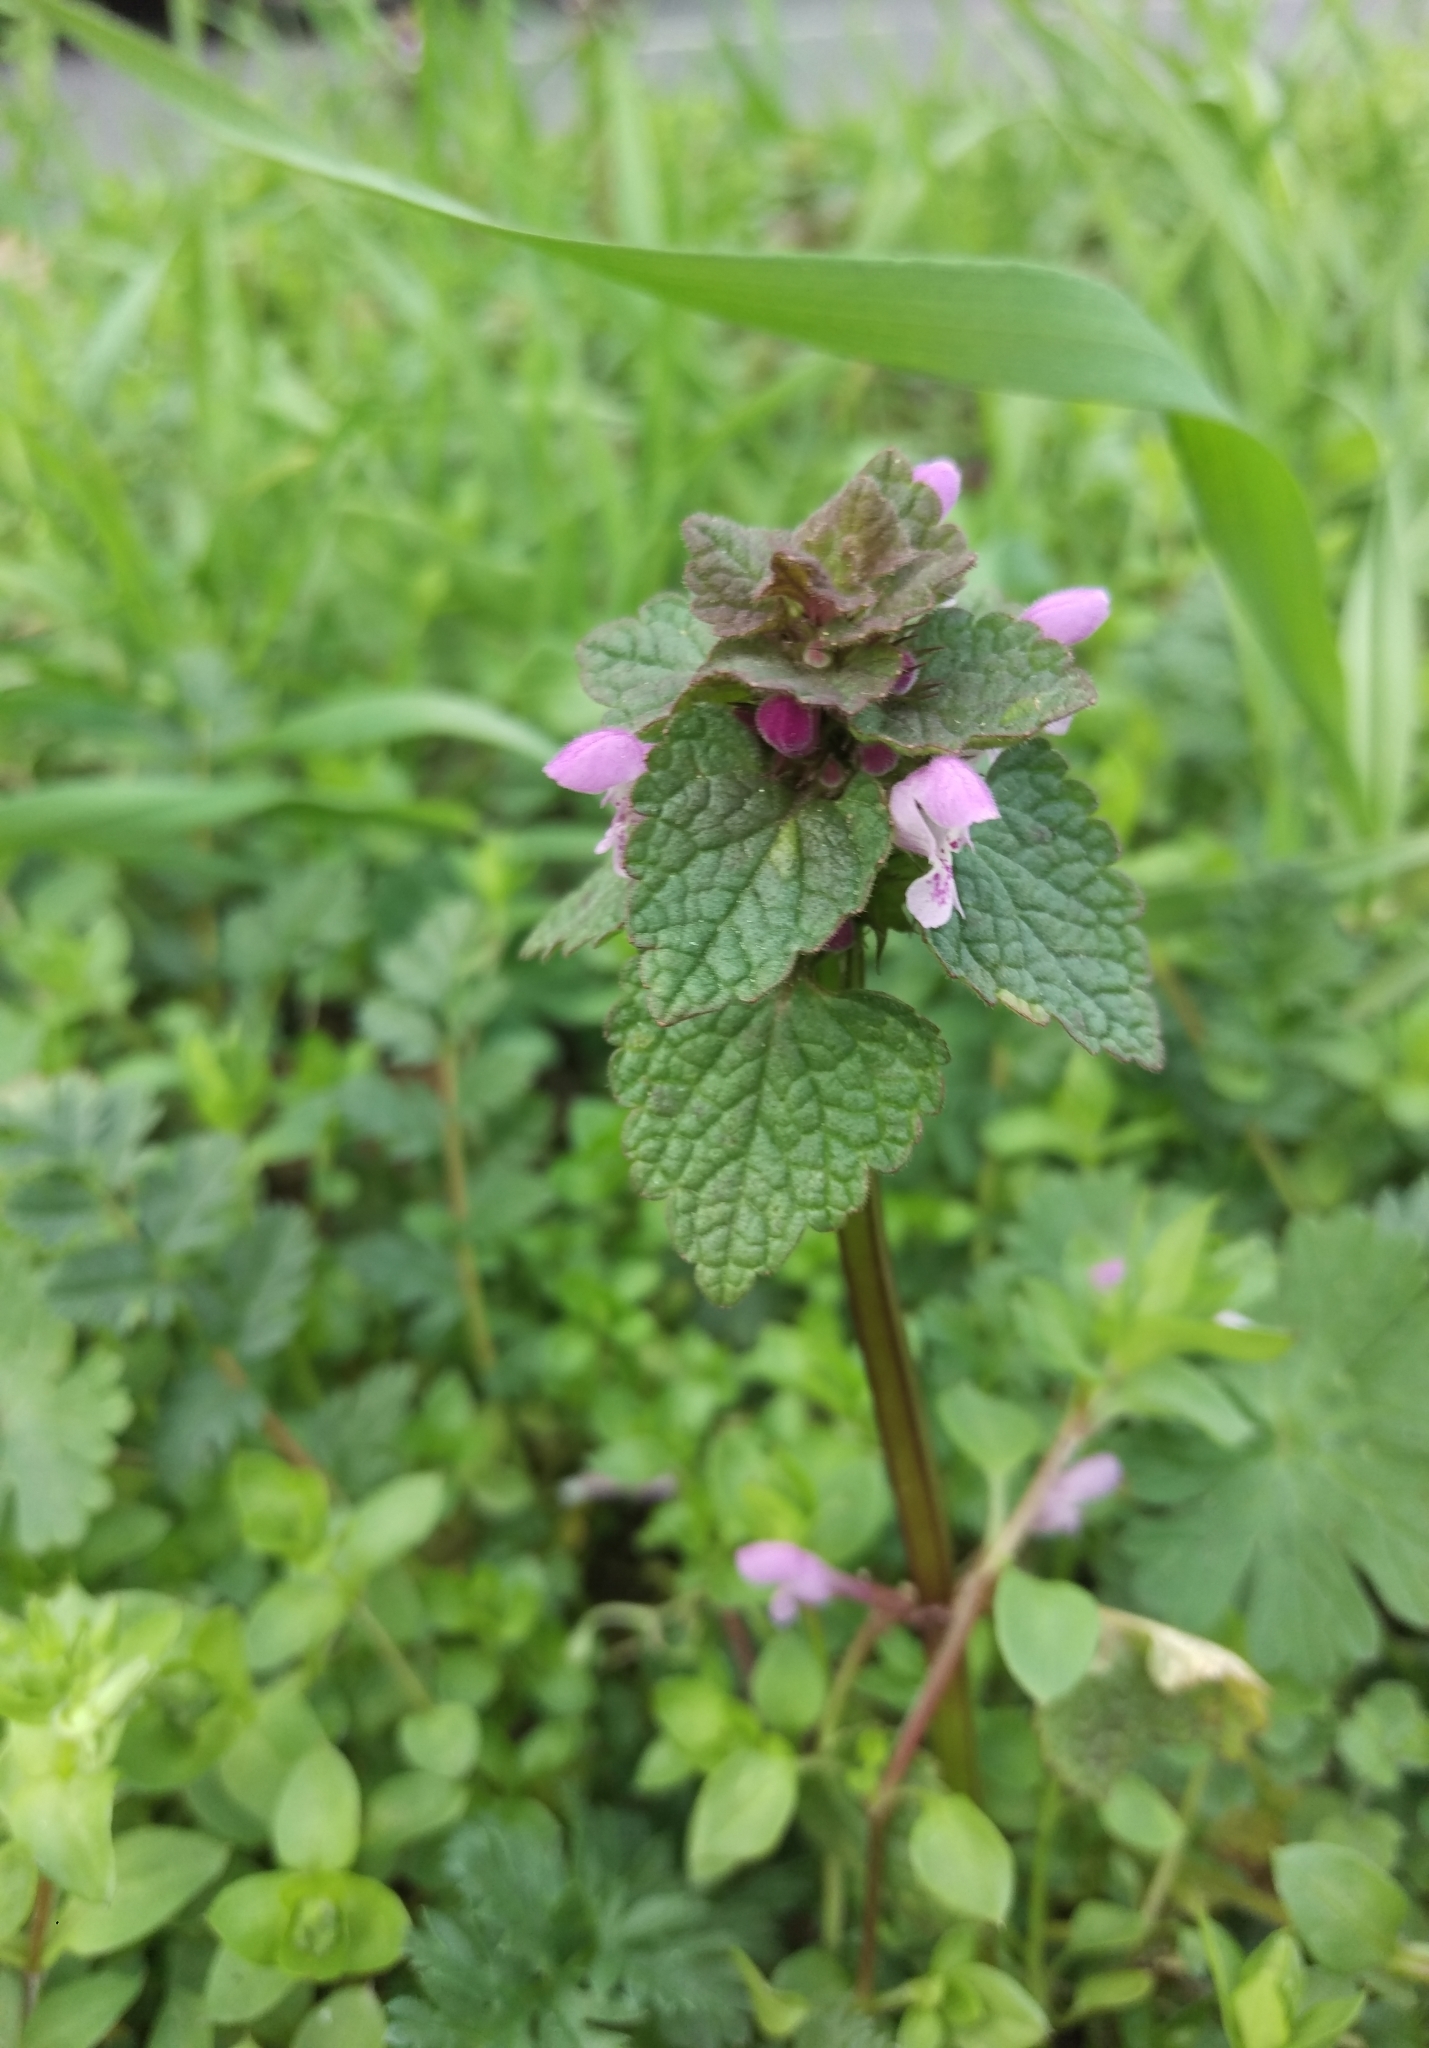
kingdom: Plantae
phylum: Tracheophyta
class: Magnoliopsida
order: Lamiales
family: Lamiaceae
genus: Lamium
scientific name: Lamium purpureum
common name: Red dead-nettle
